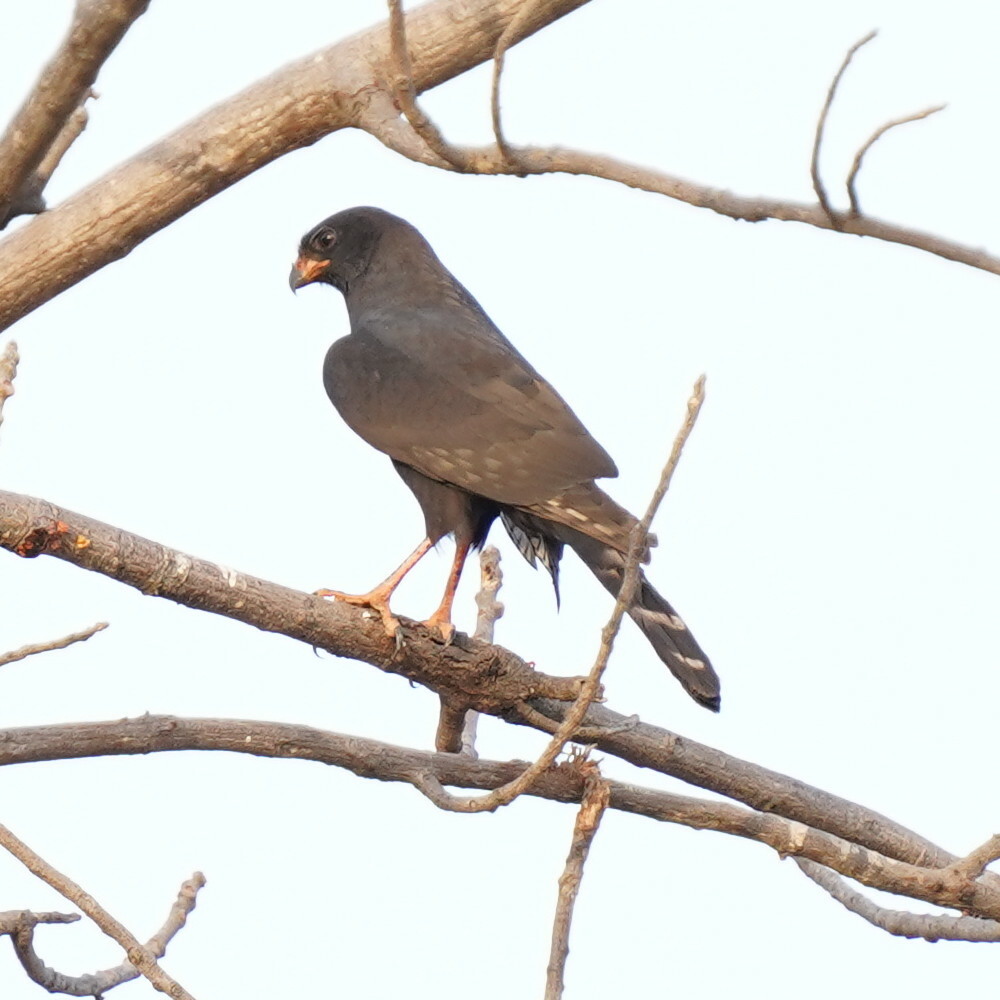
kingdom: Animalia
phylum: Chordata
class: Aves
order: Accipitriformes
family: Accipitridae
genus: Micronisus
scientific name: Micronisus gabar
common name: Gabar goshawk
